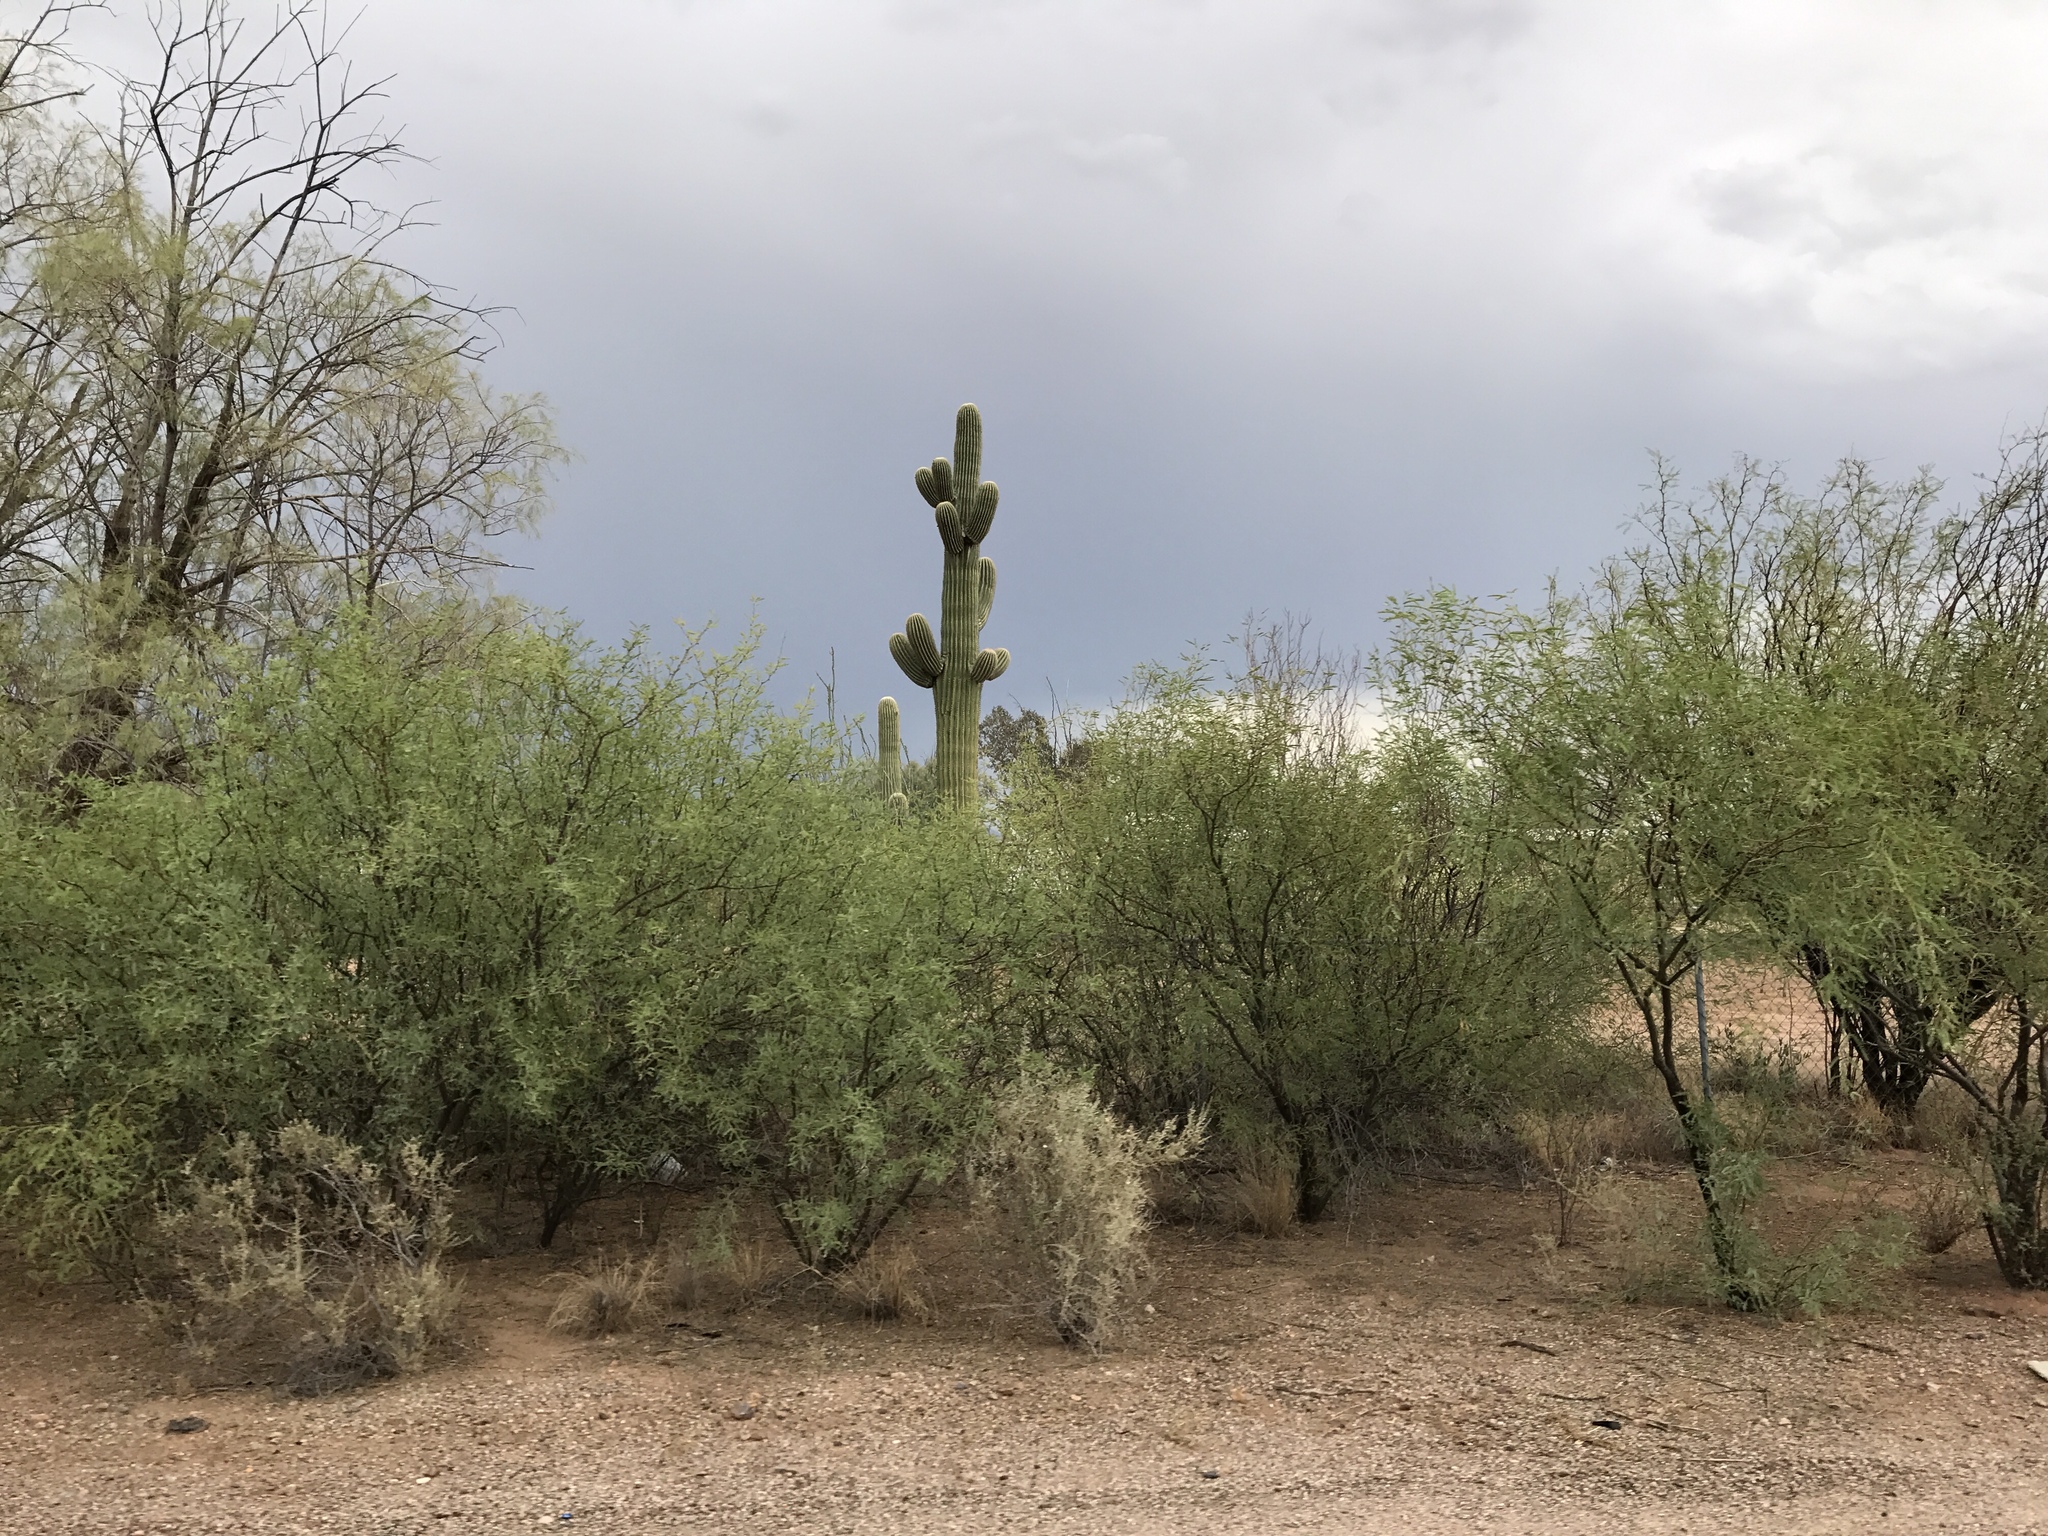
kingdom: Plantae
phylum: Tracheophyta
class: Magnoliopsida
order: Caryophyllales
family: Cactaceae
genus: Carnegiea
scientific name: Carnegiea gigantea
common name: Saguaro
